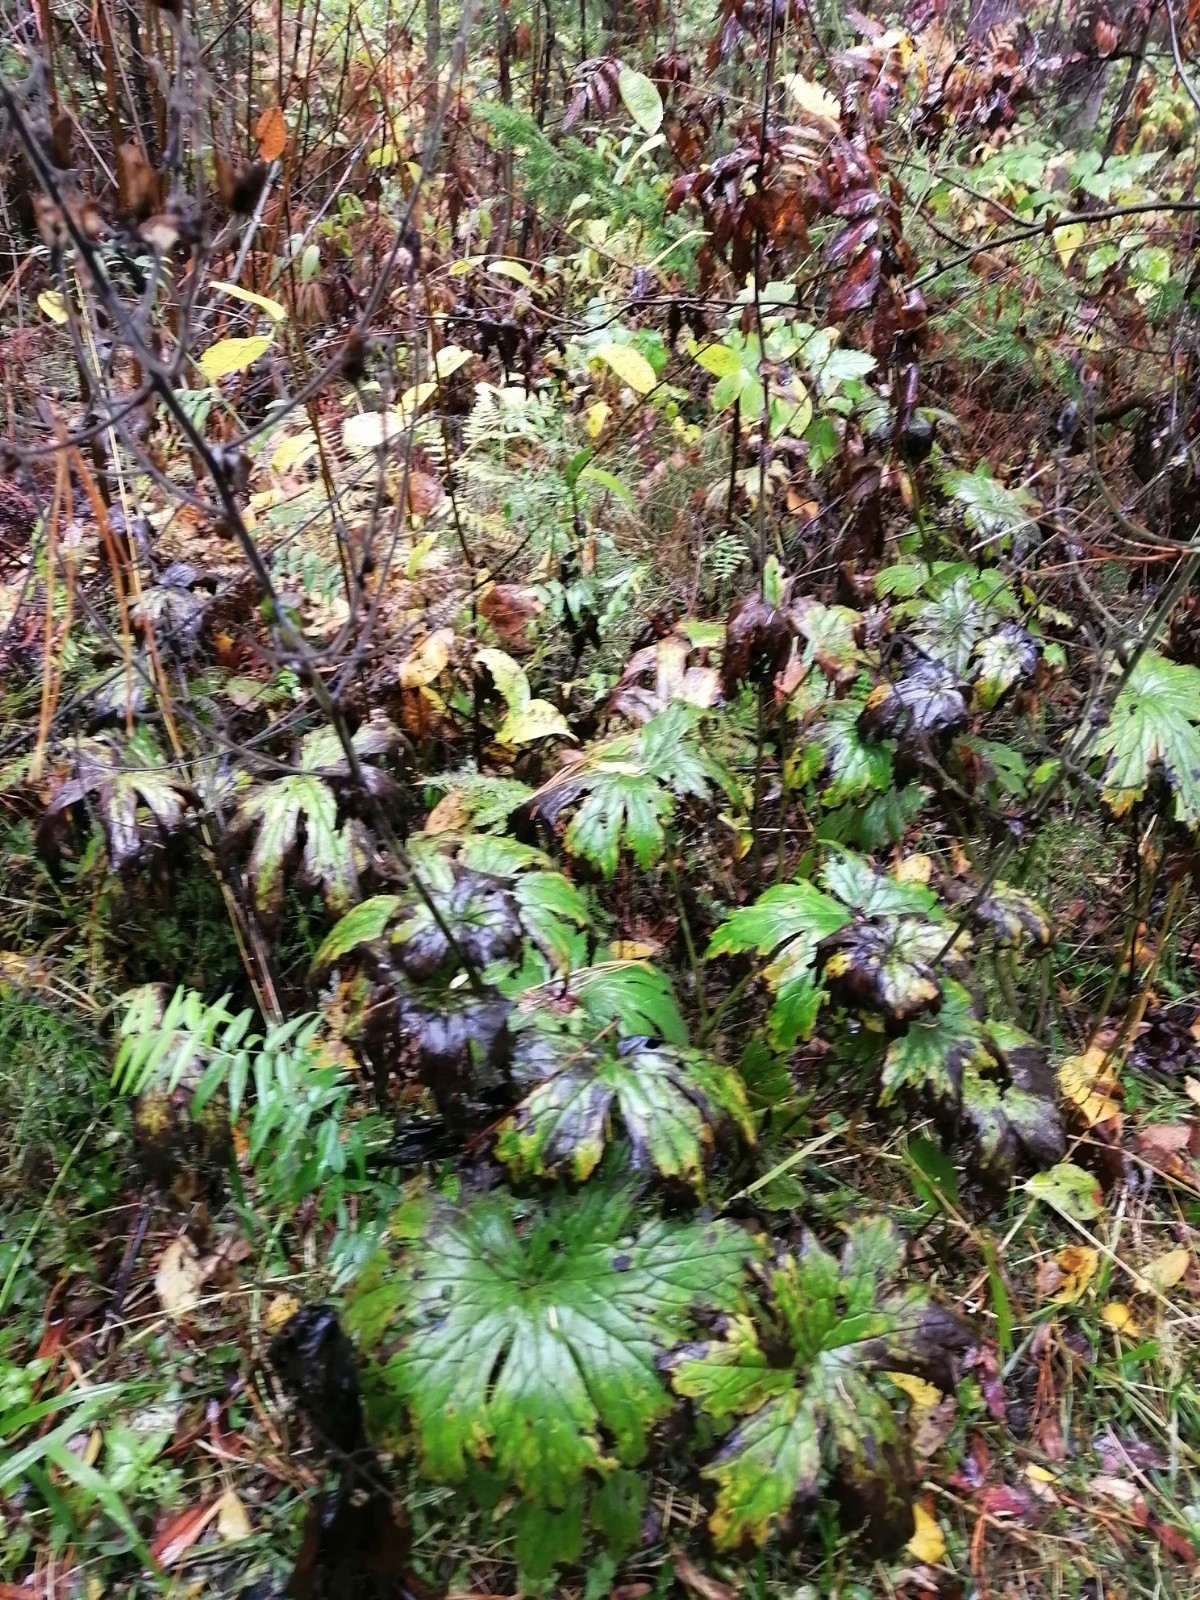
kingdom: Plantae
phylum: Tracheophyta
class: Magnoliopsida
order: Ranunculales
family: Ranunculaceae
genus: Aconitum
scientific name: Aconitum septentrionale
